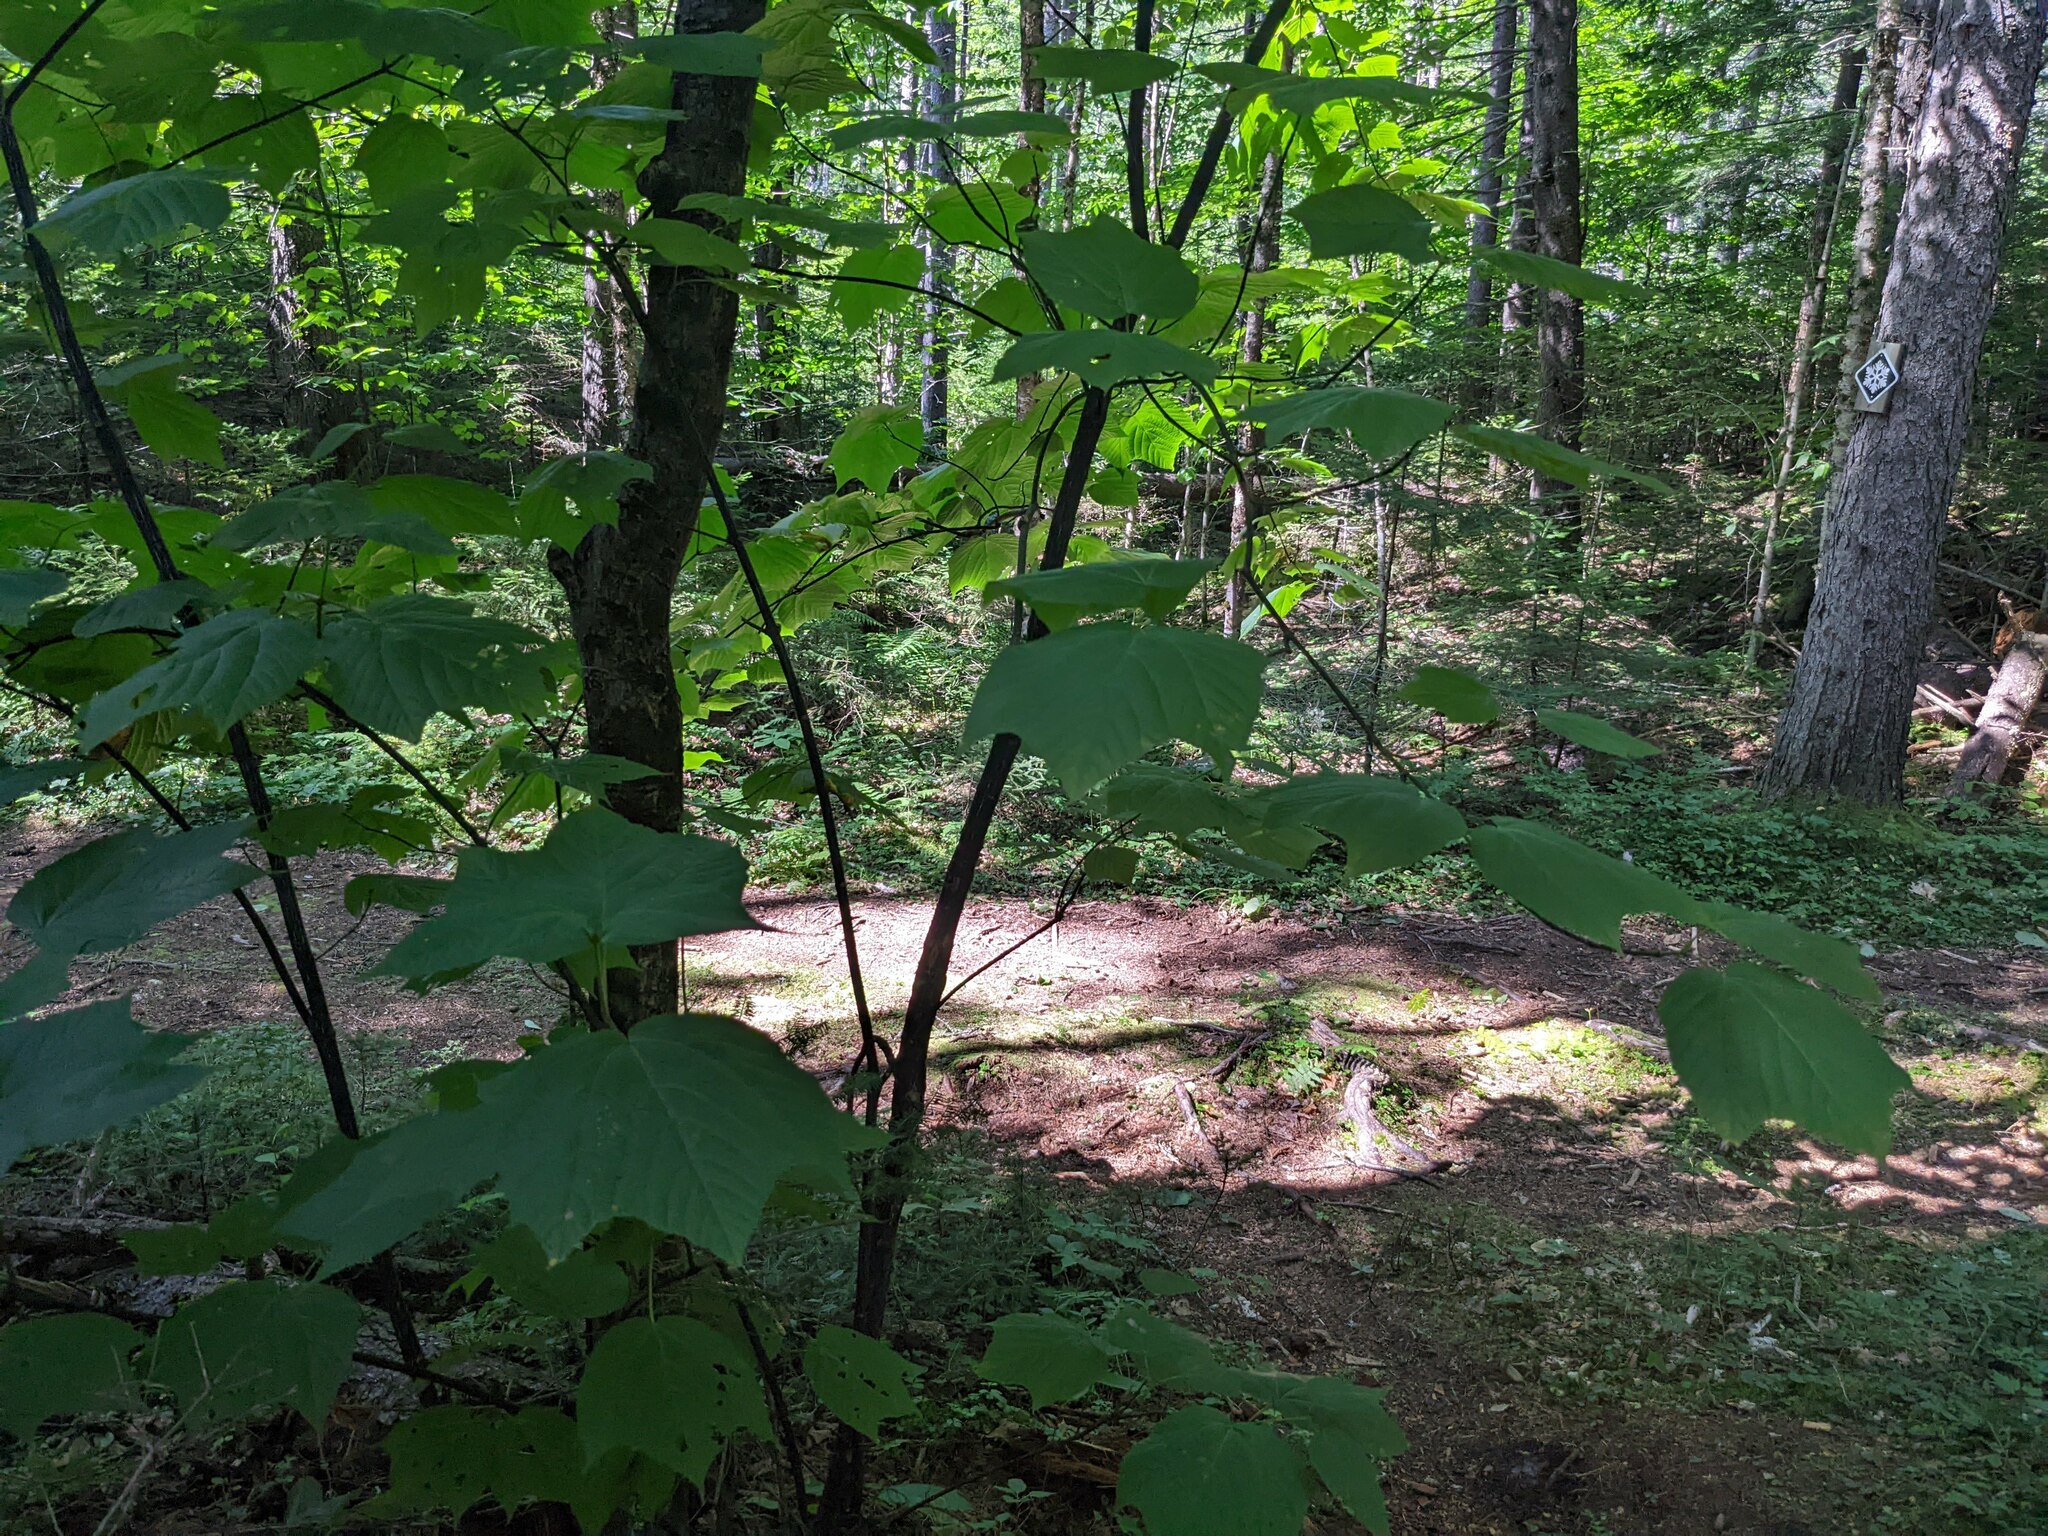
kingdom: Plantae
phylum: Tracheophyta
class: Magnoliopsida
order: Sapindales
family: Sapindaceae
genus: Acer
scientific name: Acer pensylvanicum
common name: Moosewood
